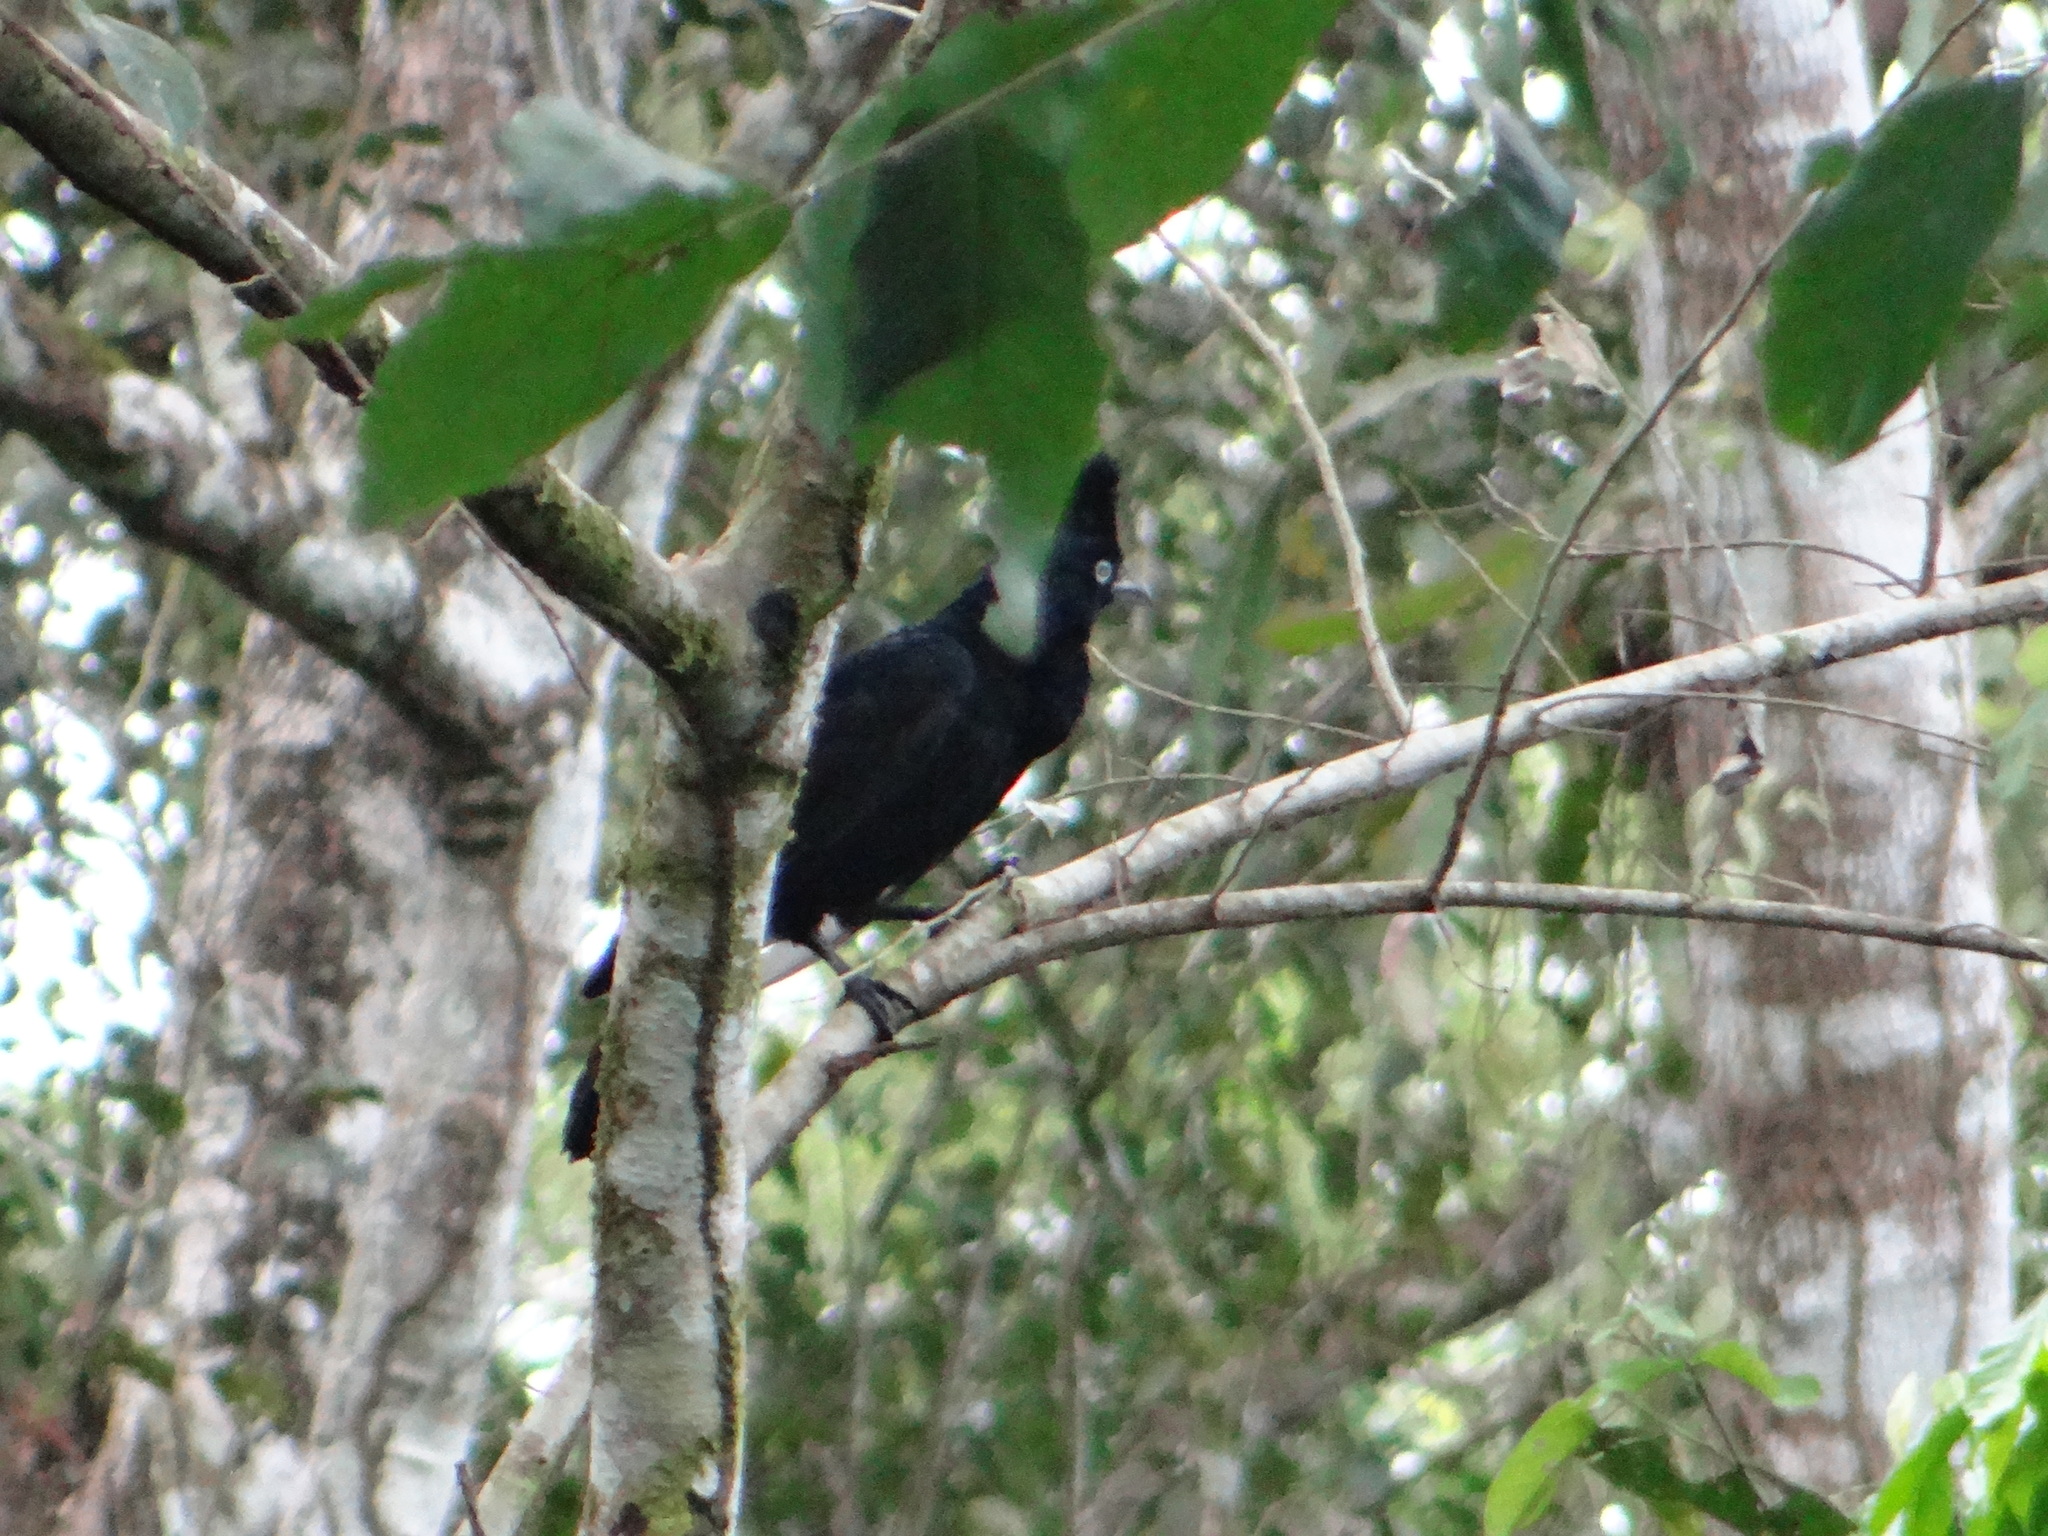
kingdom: Animalia
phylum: Chordata
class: Aves
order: Passeriformes
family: Cotingidae
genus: Cephalopterus
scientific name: Cephalopterus ornatus
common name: Amazonian umbrellabird
